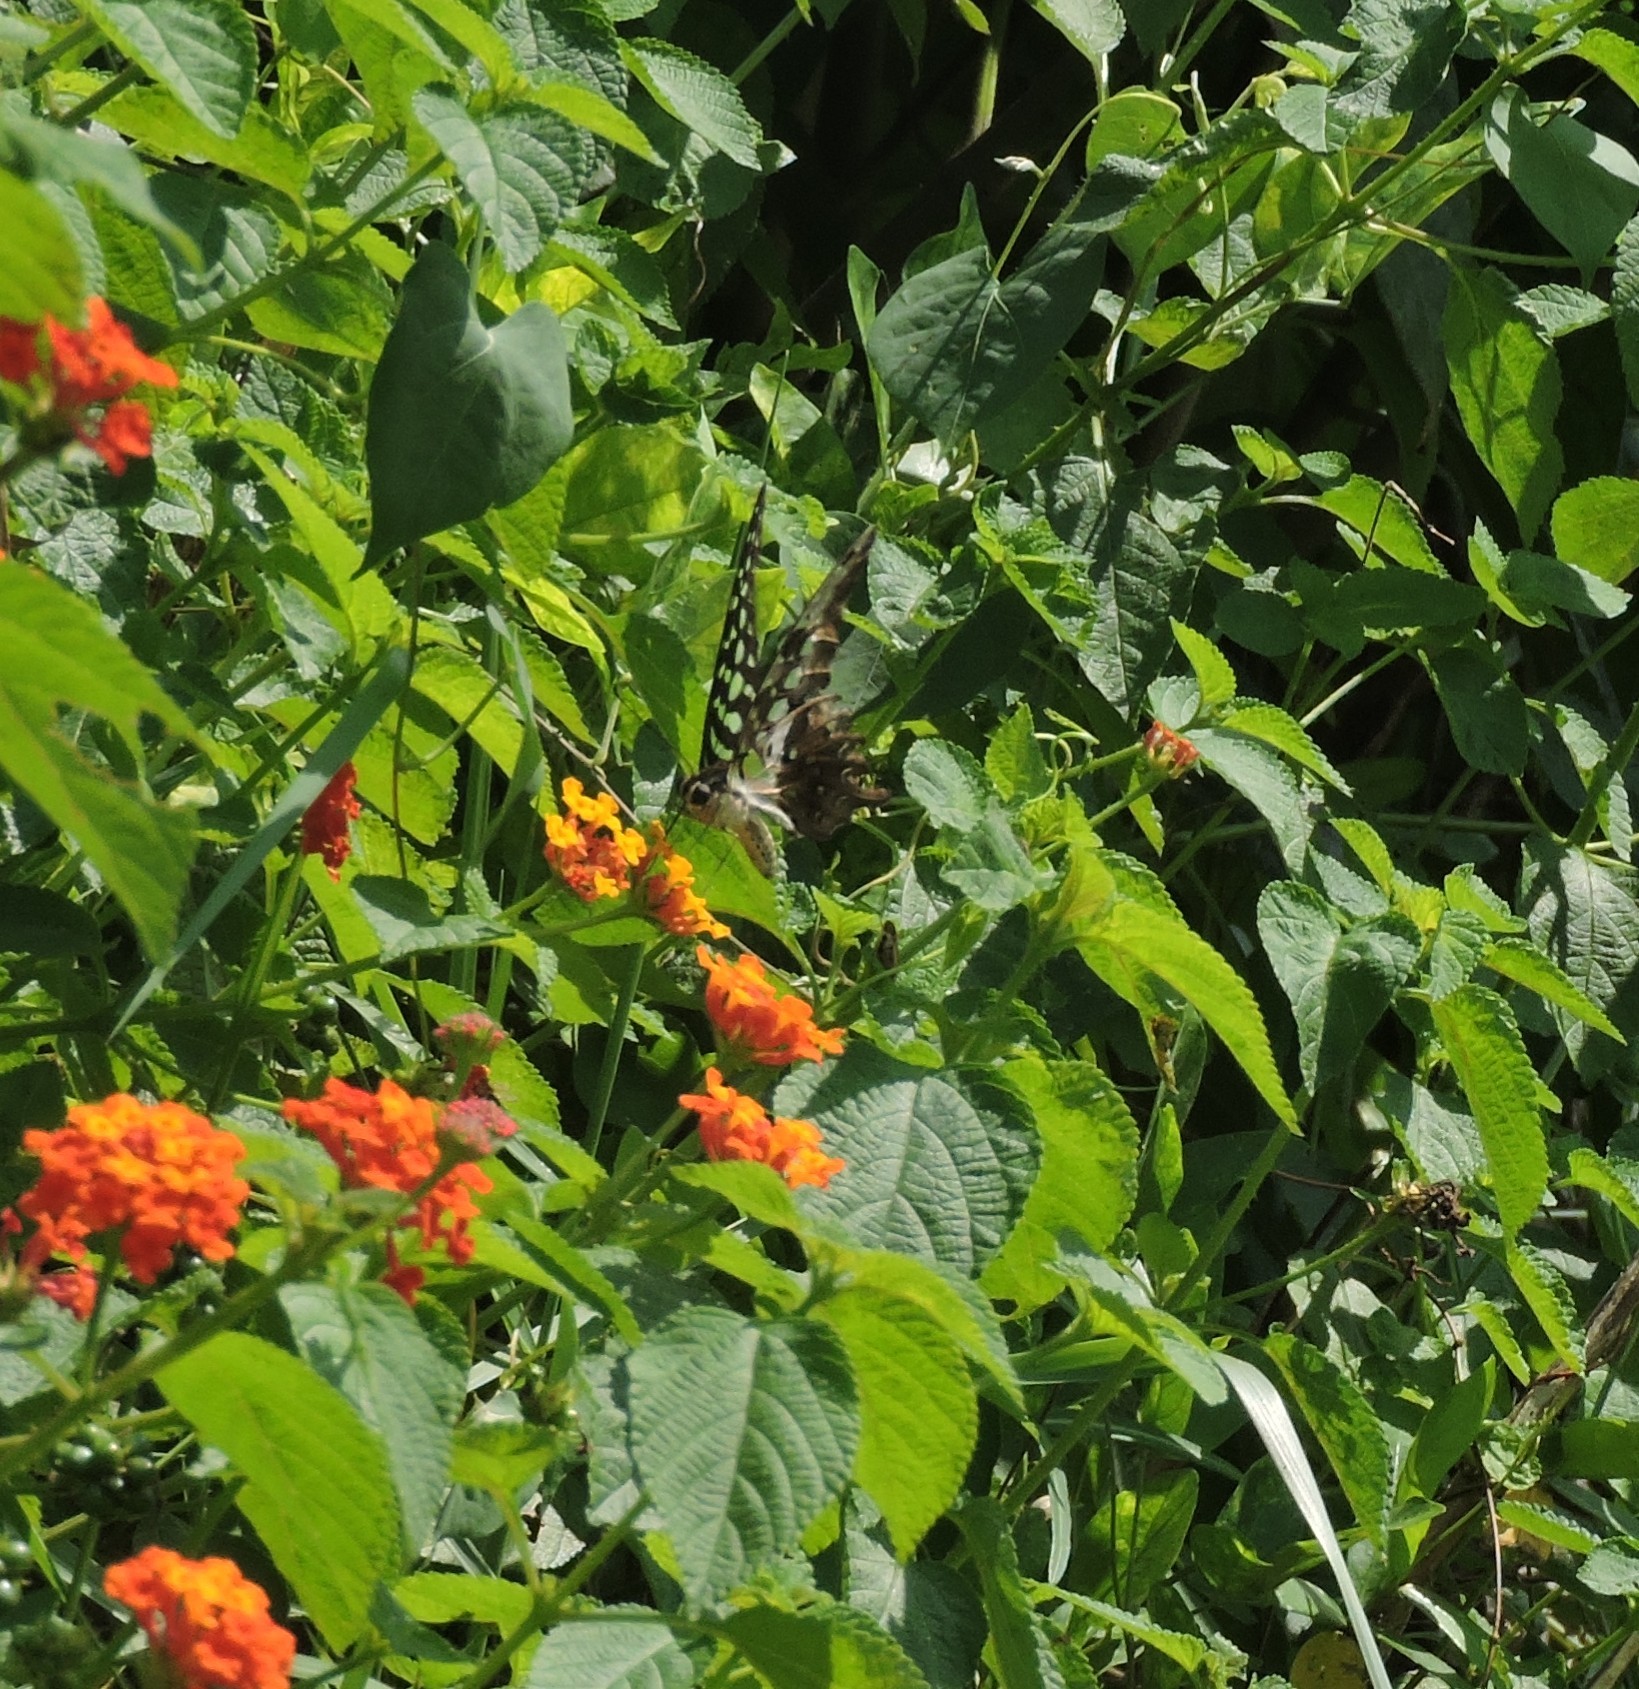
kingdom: Animalia
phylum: Arthropoda
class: Insecta
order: Lepidoptera
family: Papilionidae
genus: Graphium
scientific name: Graphium agamemnon
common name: Tailed jay
